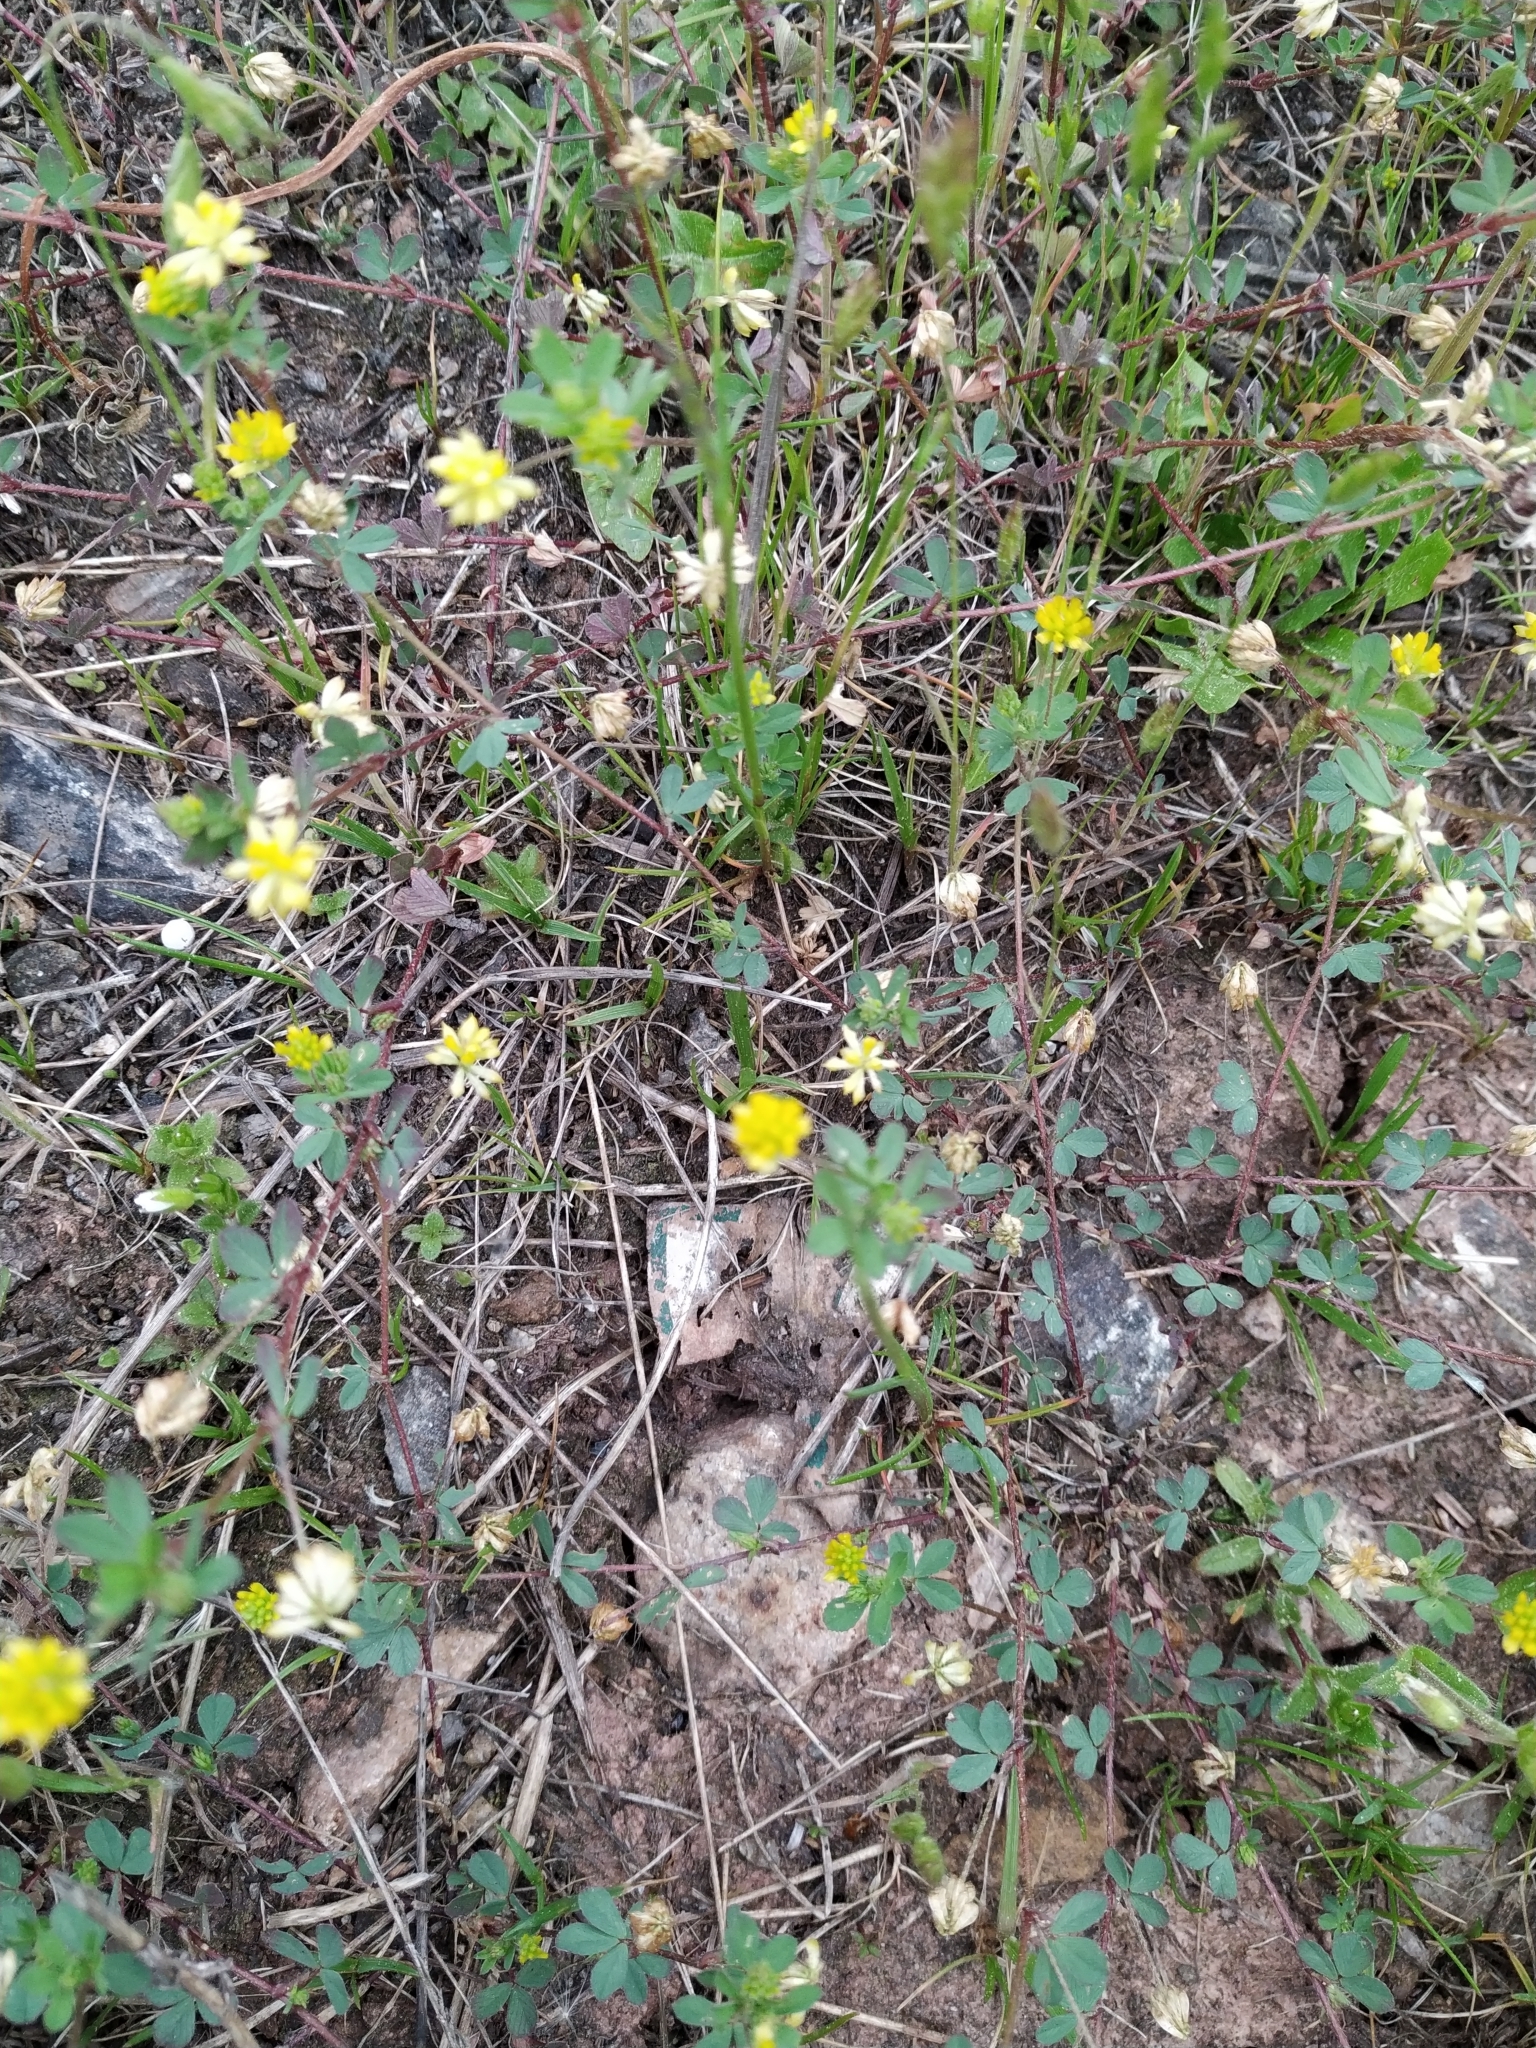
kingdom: Plantae
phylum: Tracheophyta
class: Magnoliopsida
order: Fabales
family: Fabaceae
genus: Trifolium
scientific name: Trifolium dubium
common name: Suckling clover
